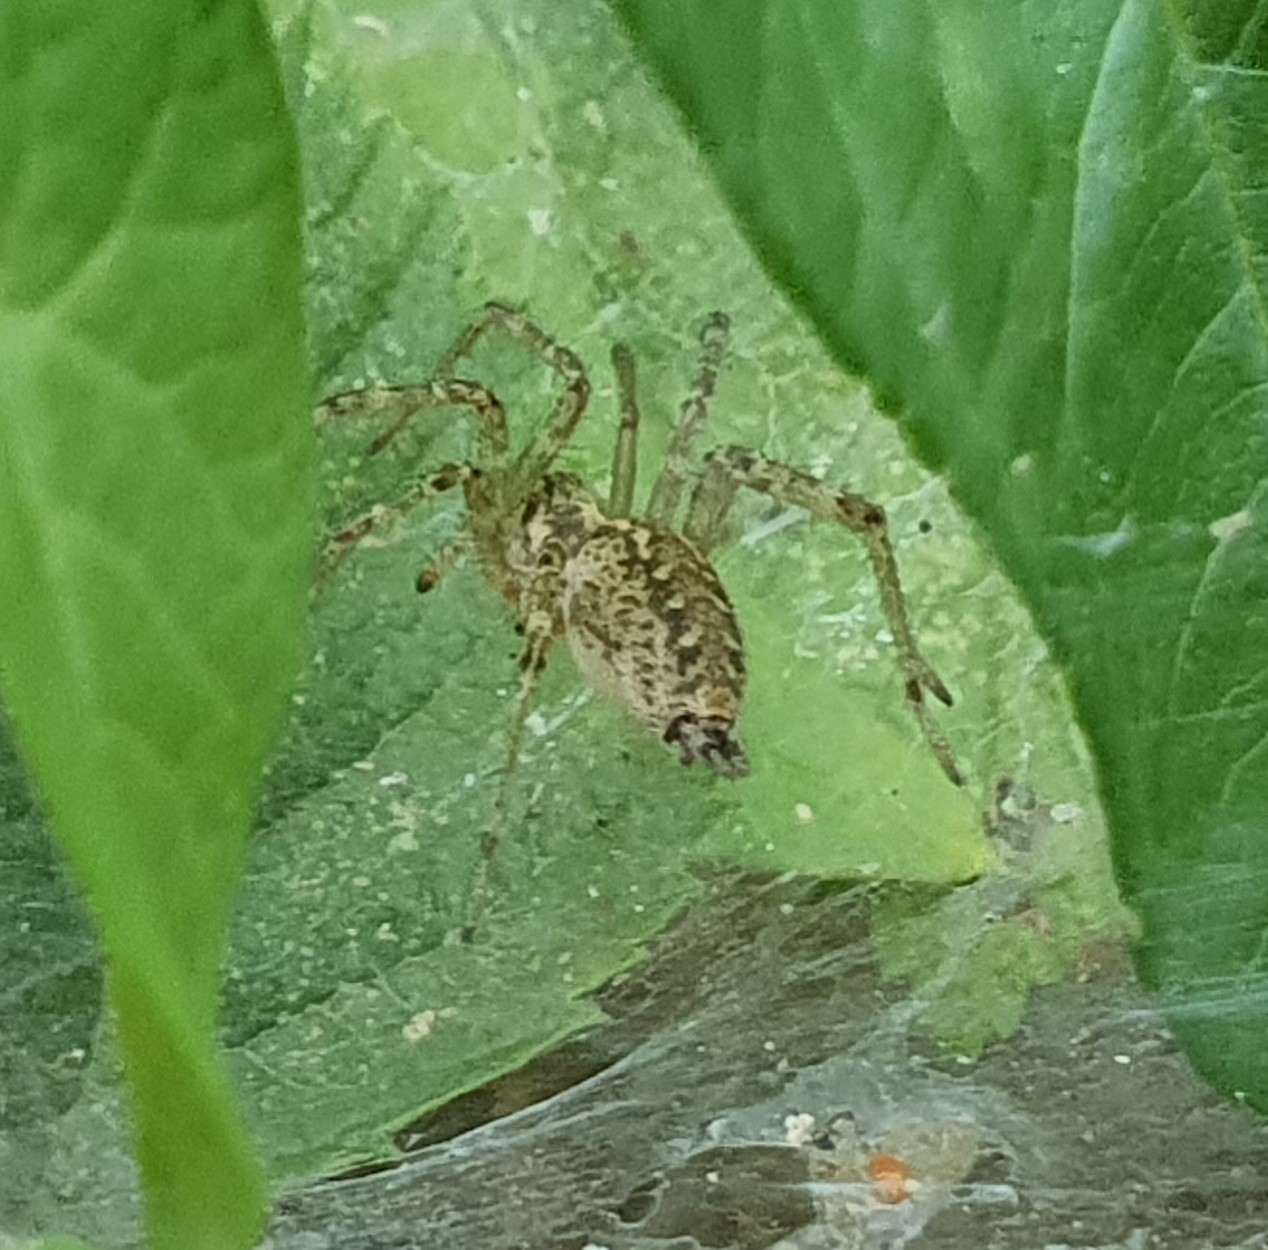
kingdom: Animalia
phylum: Arthropoda
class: Arachnida
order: Araneae
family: Agelenidae
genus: Allagelena
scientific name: Allagelena gracilens
